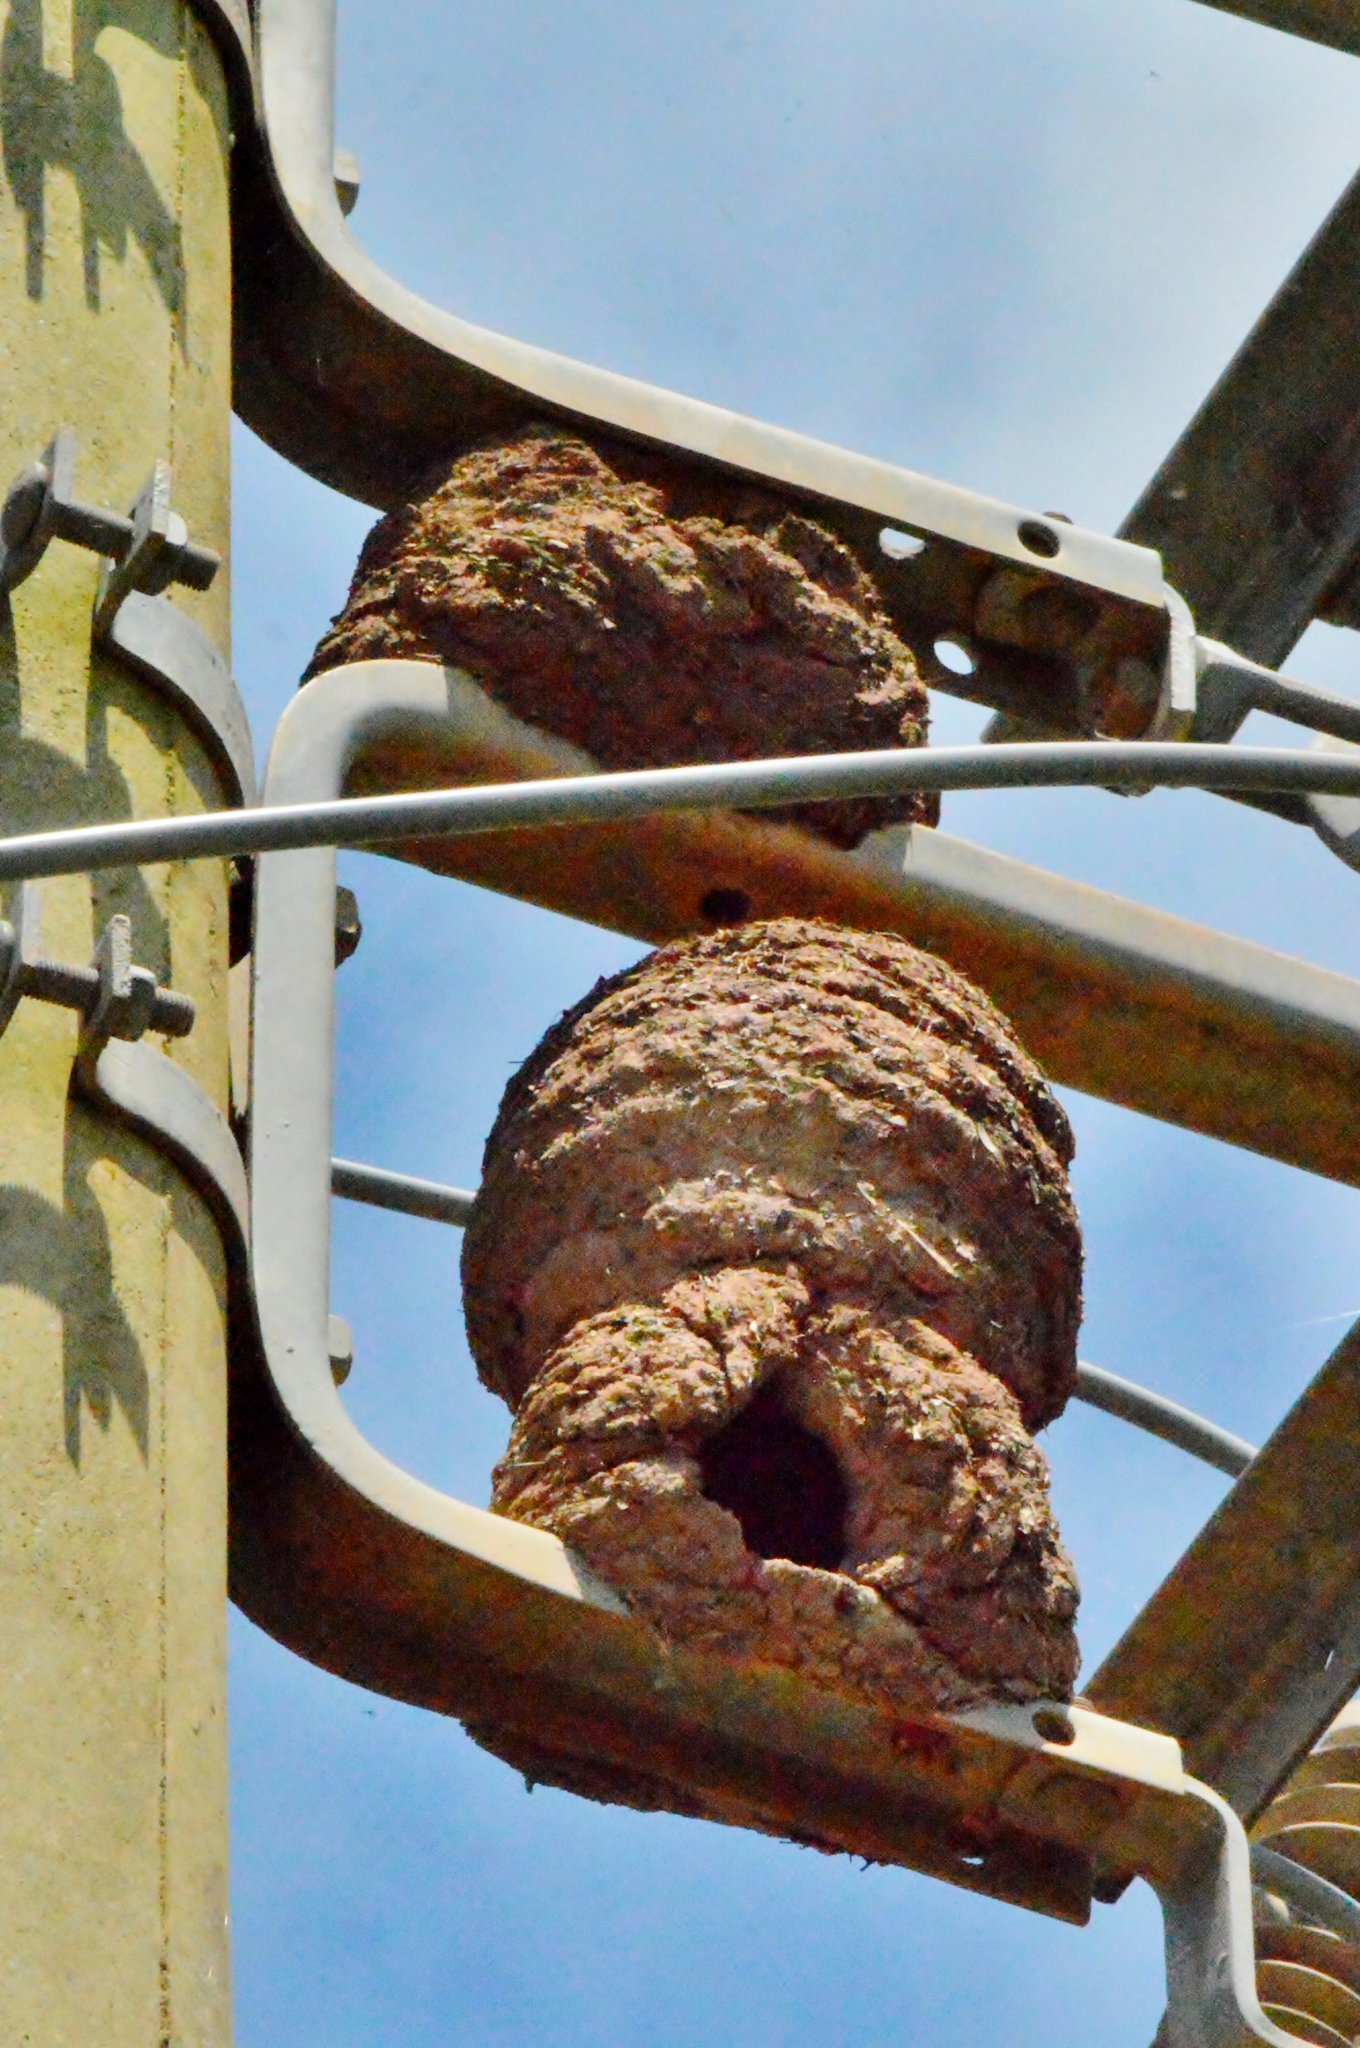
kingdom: Animalia
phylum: Chordata
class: Aves
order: Passeriformes
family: Furnariidae
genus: Furnarius
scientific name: Furnarius rufus
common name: Rufous hornero
